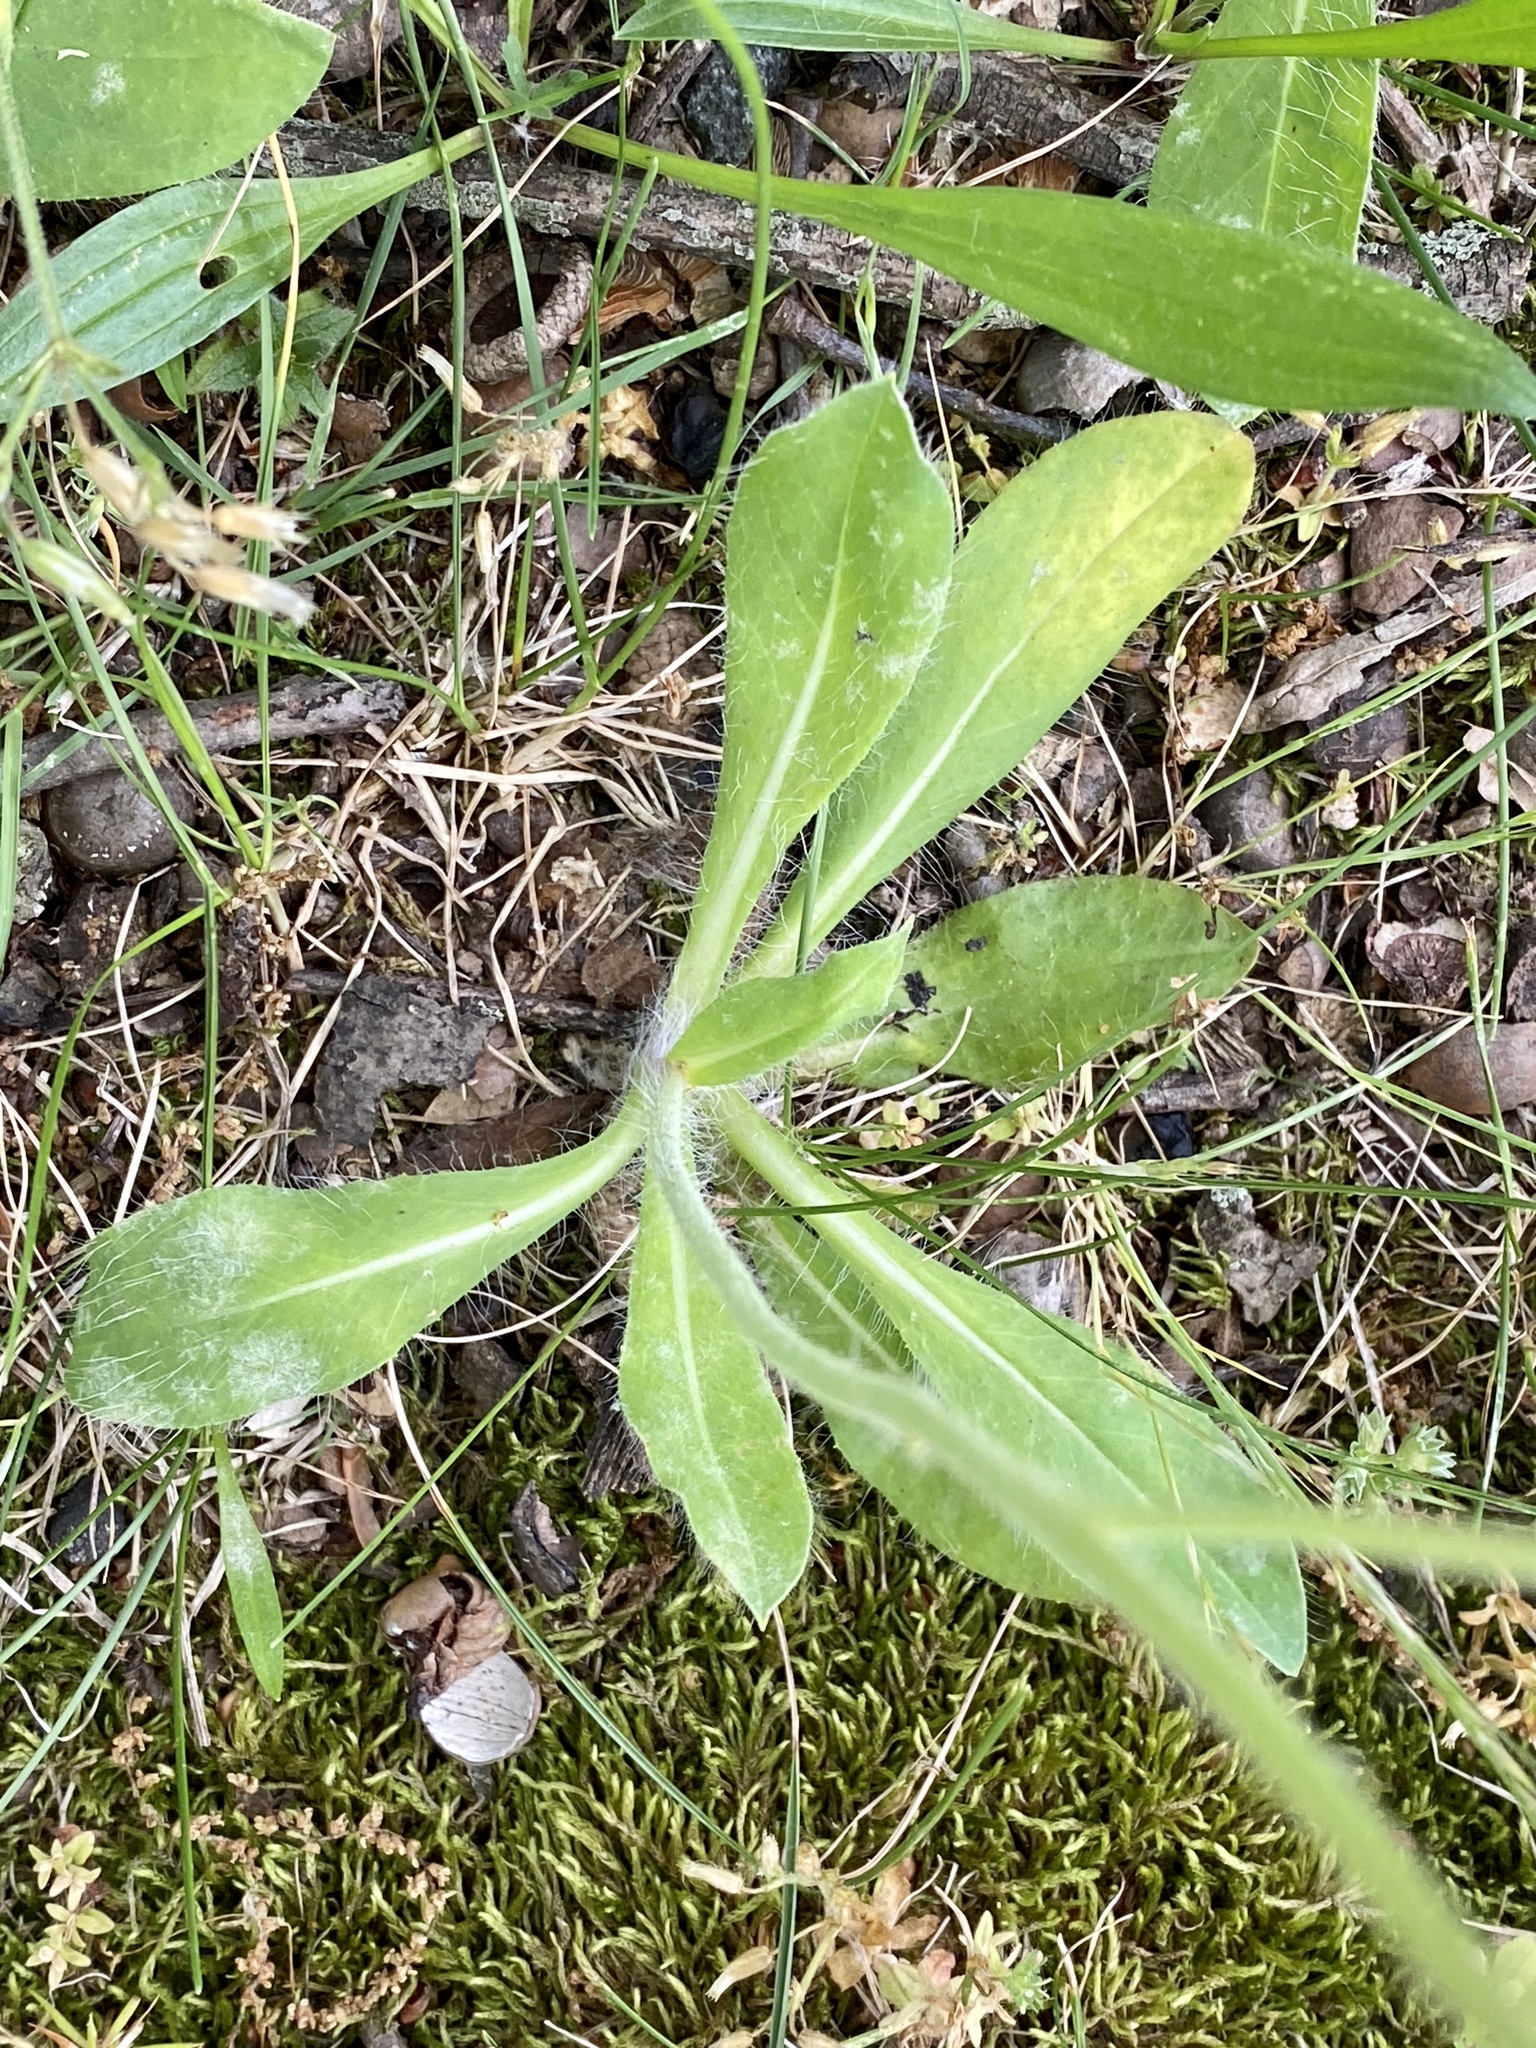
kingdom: Plantae
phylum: Tracheophyta
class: Magnoliopsida
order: Asterales
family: Asteraceae
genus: Pilosella
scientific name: Pilosella caespitosa
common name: Yellow fox-and-cubs
